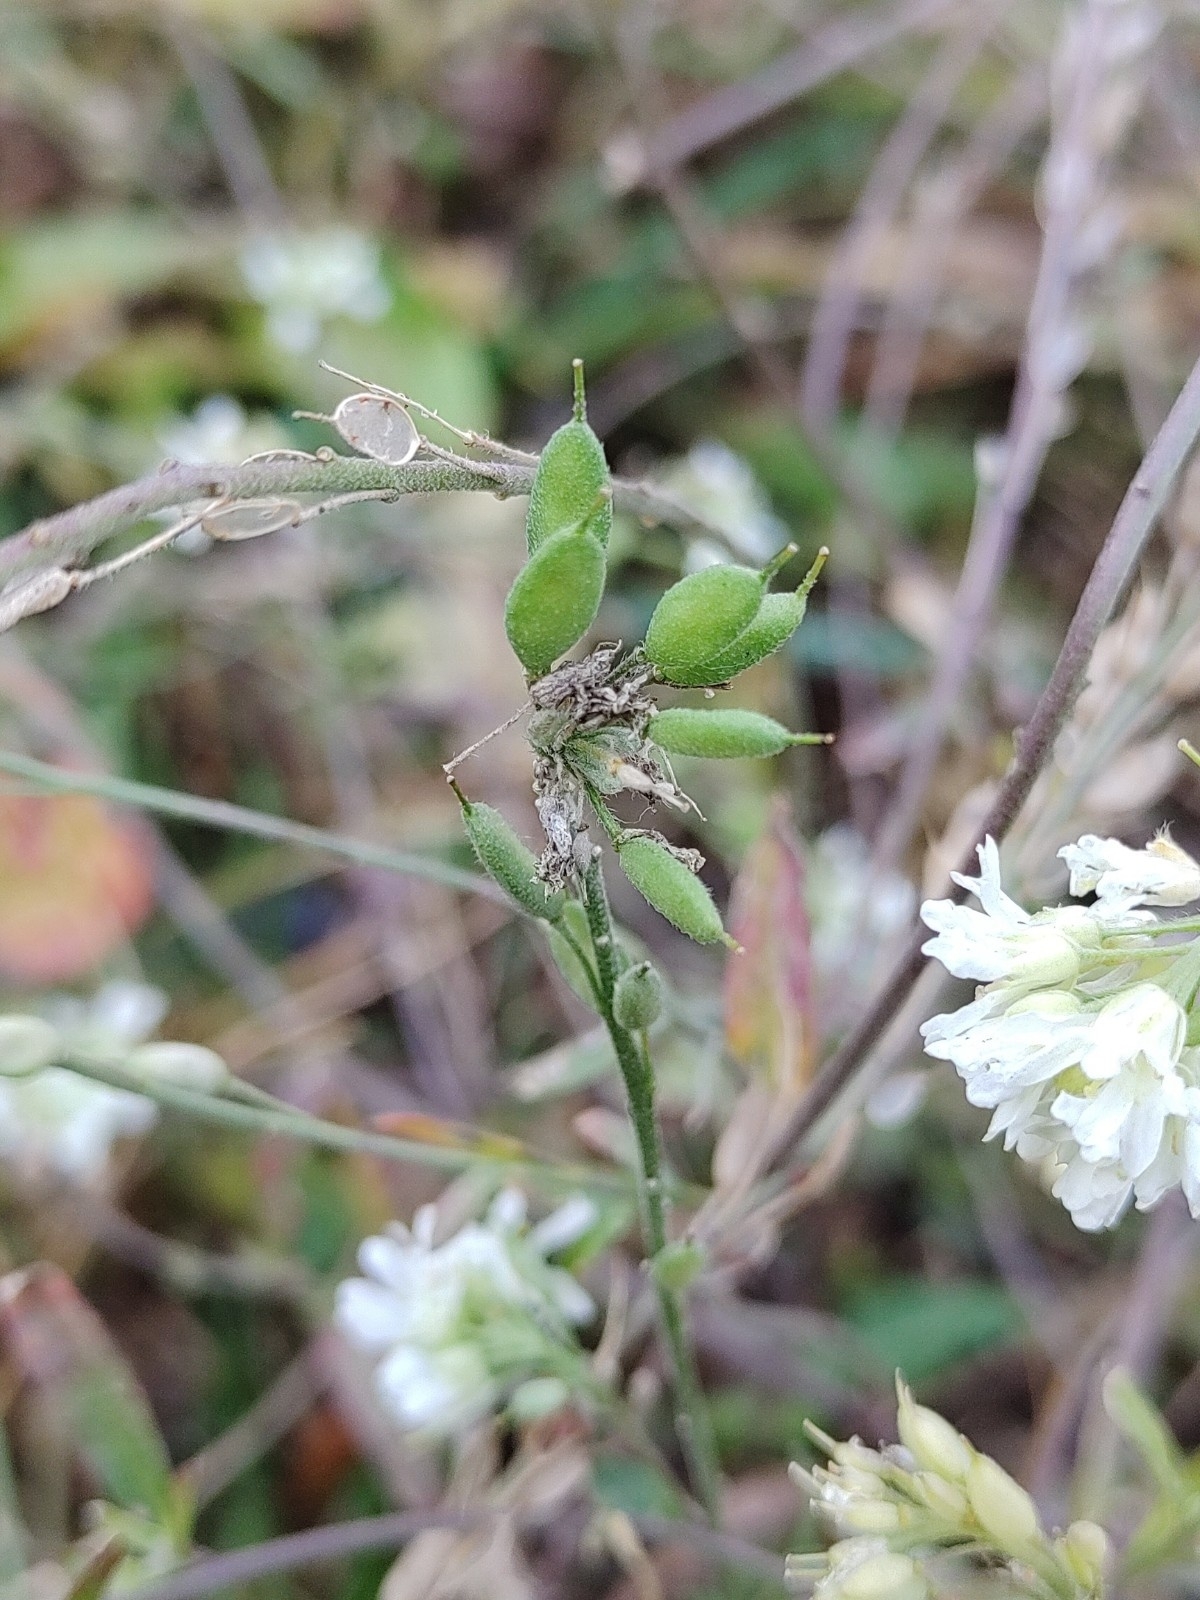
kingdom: Plantae
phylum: Tracheophyta
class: Magnoliopsida
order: Brassicales
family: Brassicaceae
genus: Berteroa
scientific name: Berteroa incana
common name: Hoary alison
